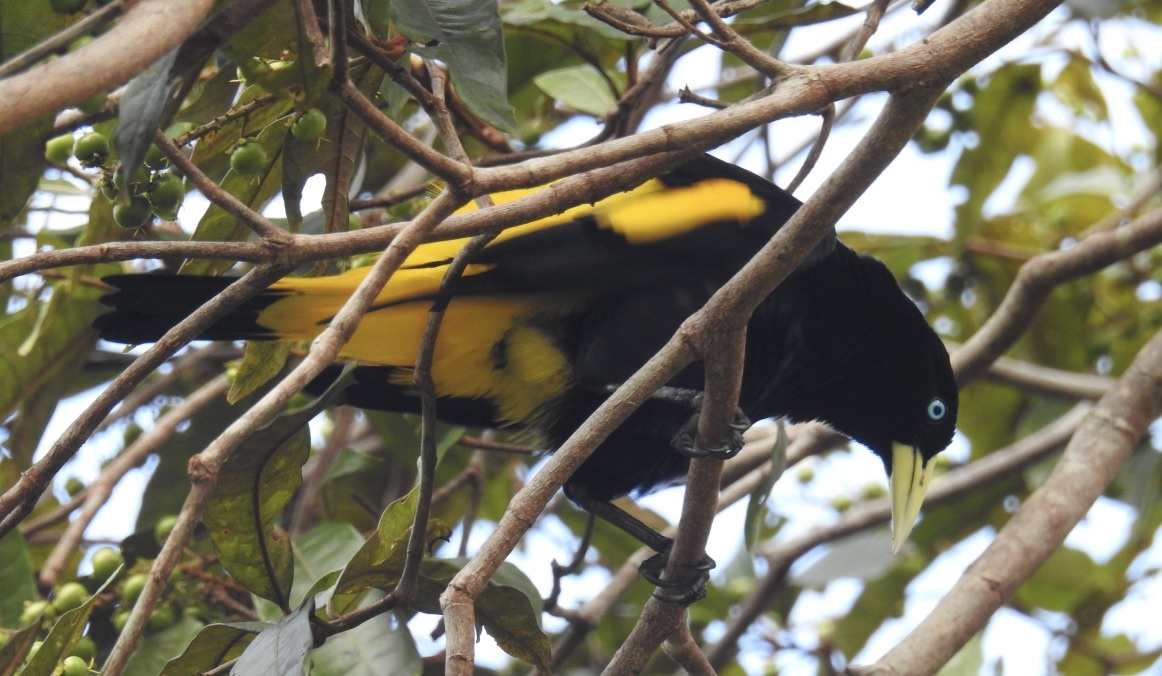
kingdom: Animalia
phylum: Chordata
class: Aves
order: Passeriformes
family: Icteridae
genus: Cacicus
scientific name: Cacicus cela
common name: Yellow-rumped cacique
